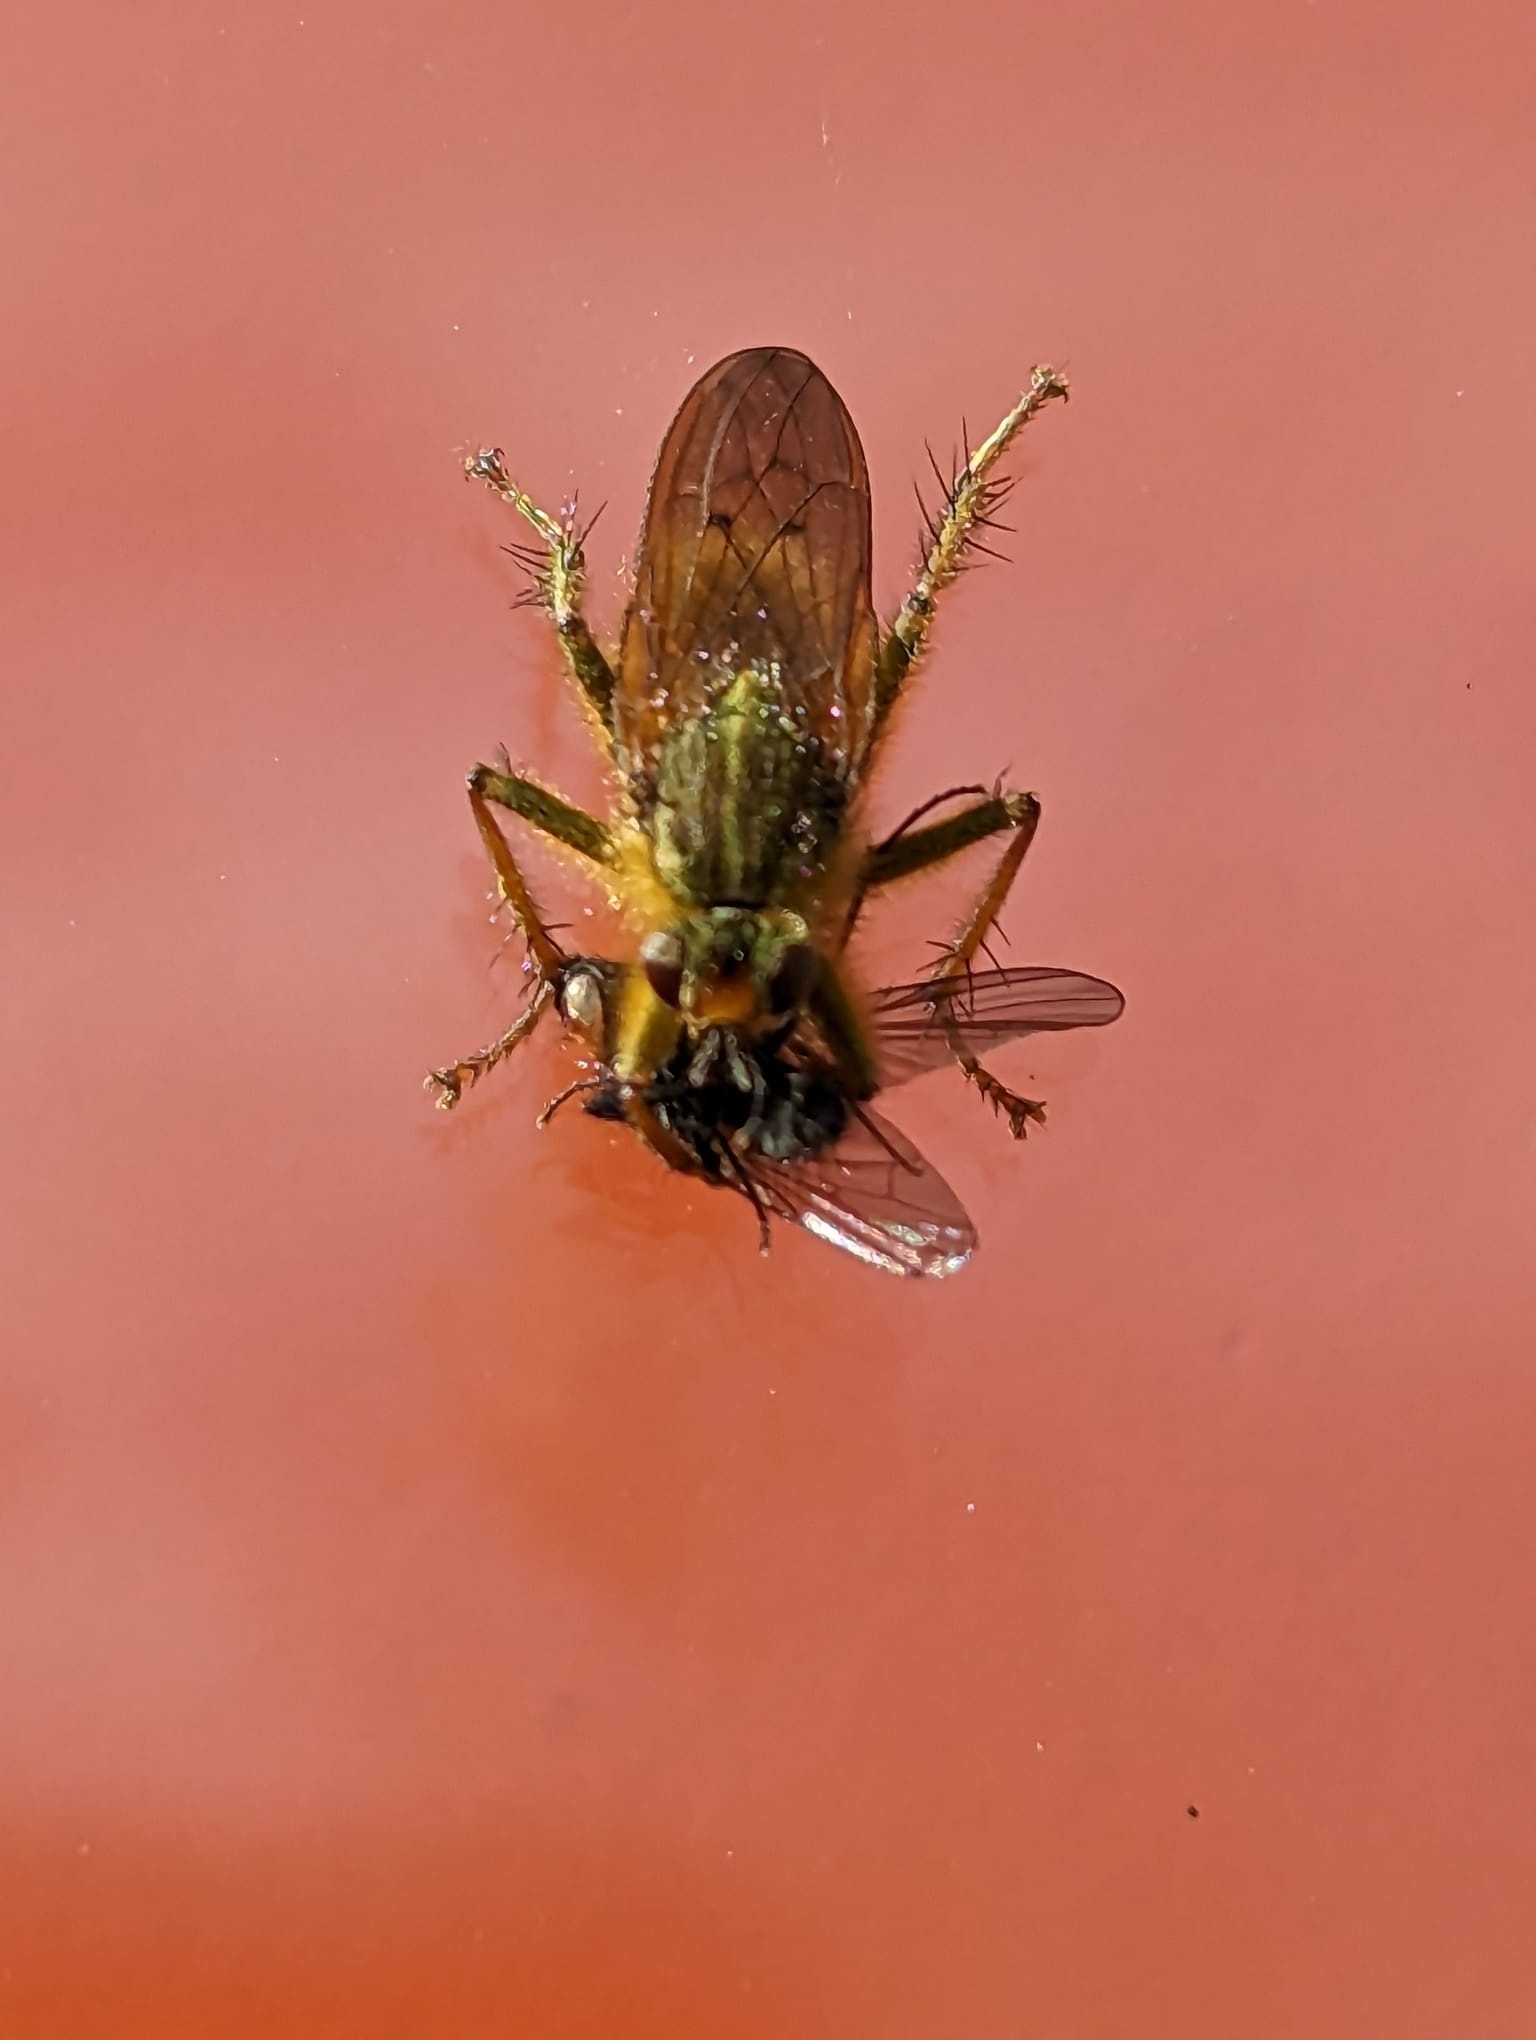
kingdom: Animalia
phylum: Arthropoda
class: Insecta
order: Diptera
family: Scathophagidae
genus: Scathophaga
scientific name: Scathophaga stercoraria
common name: Yellow dung fly
